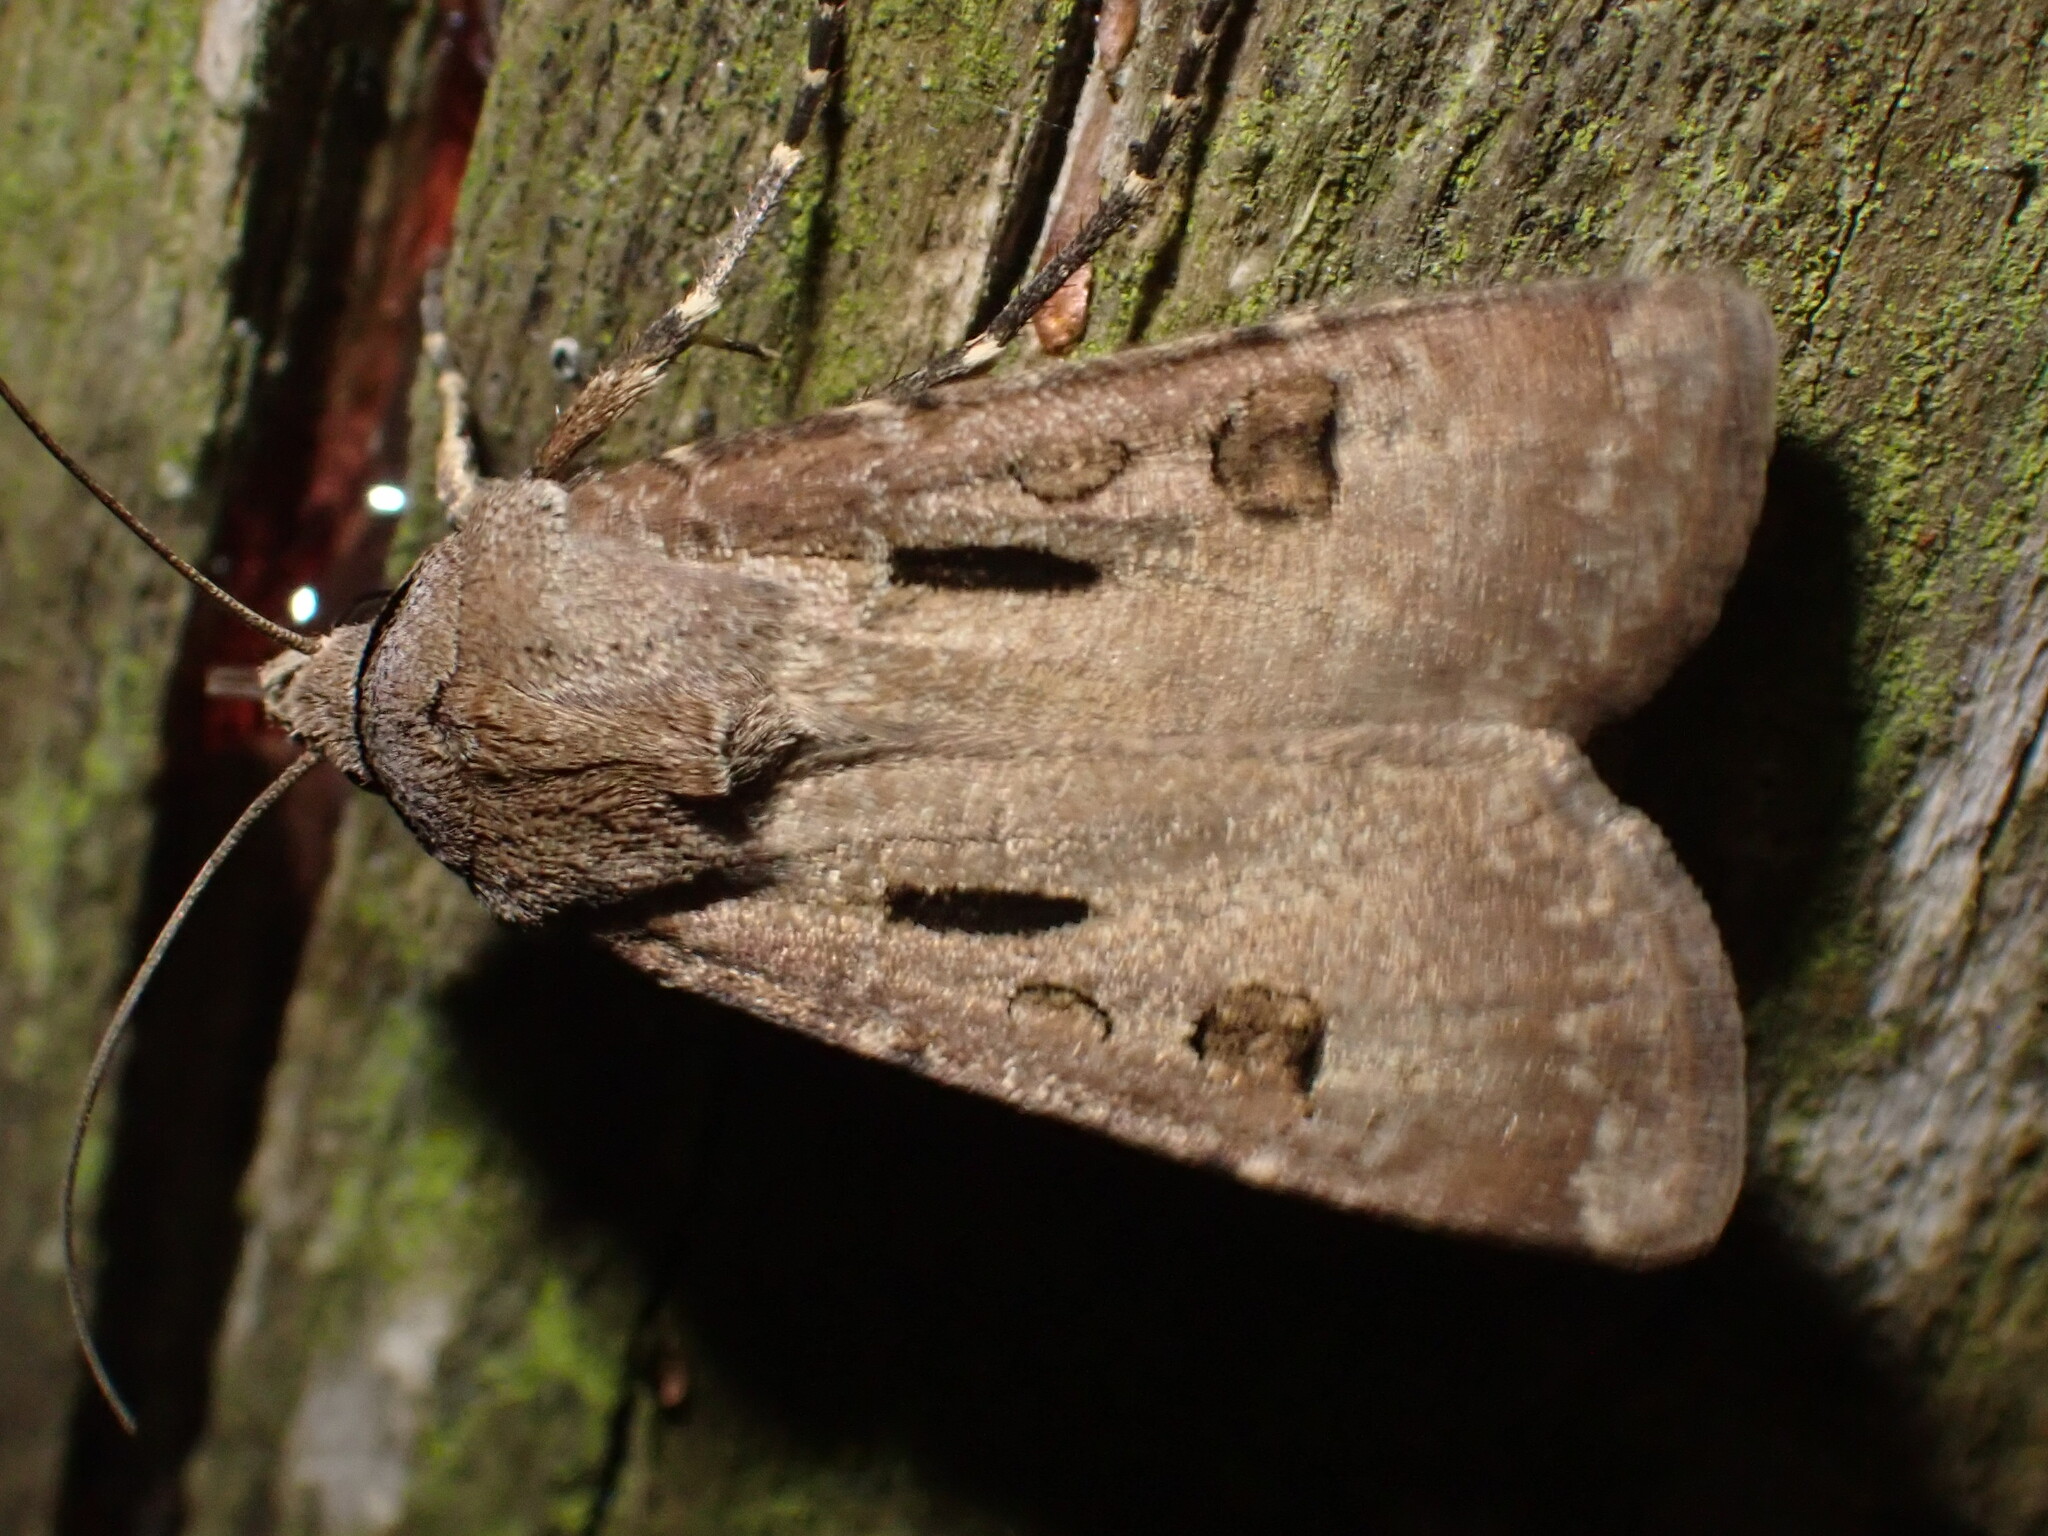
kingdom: Animalia
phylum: Arthropoda
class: Insecta
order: Lepidoptera
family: Noctuidae
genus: Agrotis
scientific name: Agrotis exclamationis
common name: Heart and dart
